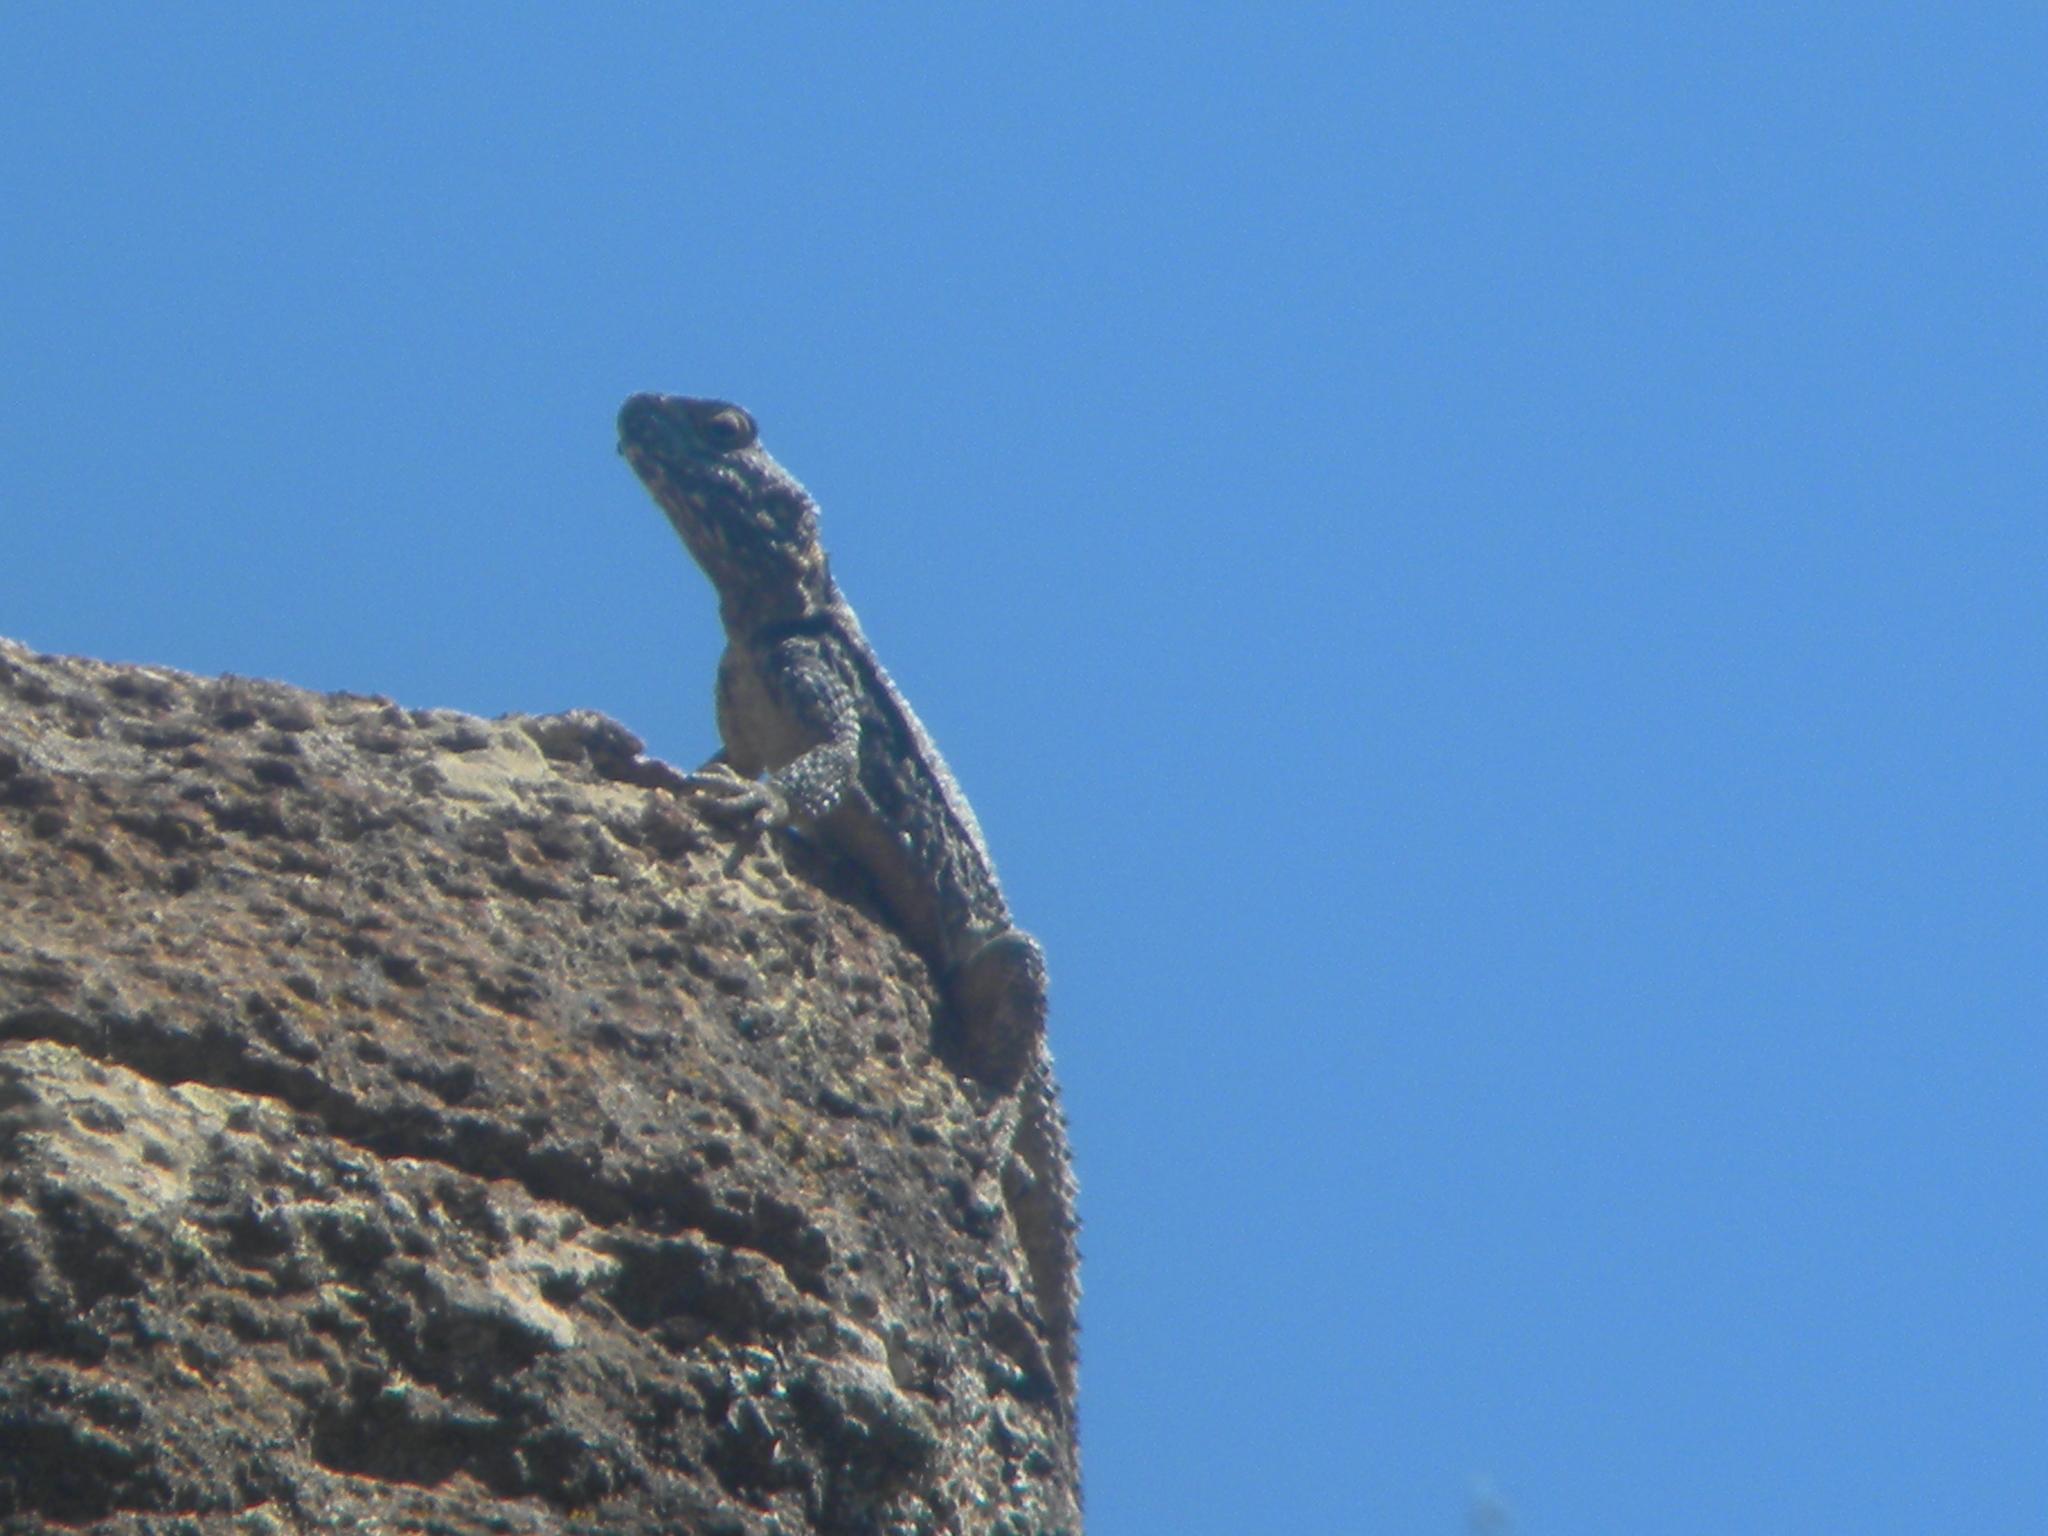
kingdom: Animalia
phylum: Chordata
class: Squamata
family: Agamidae
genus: Stellagama
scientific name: Stellagama stellio
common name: Starred agama
